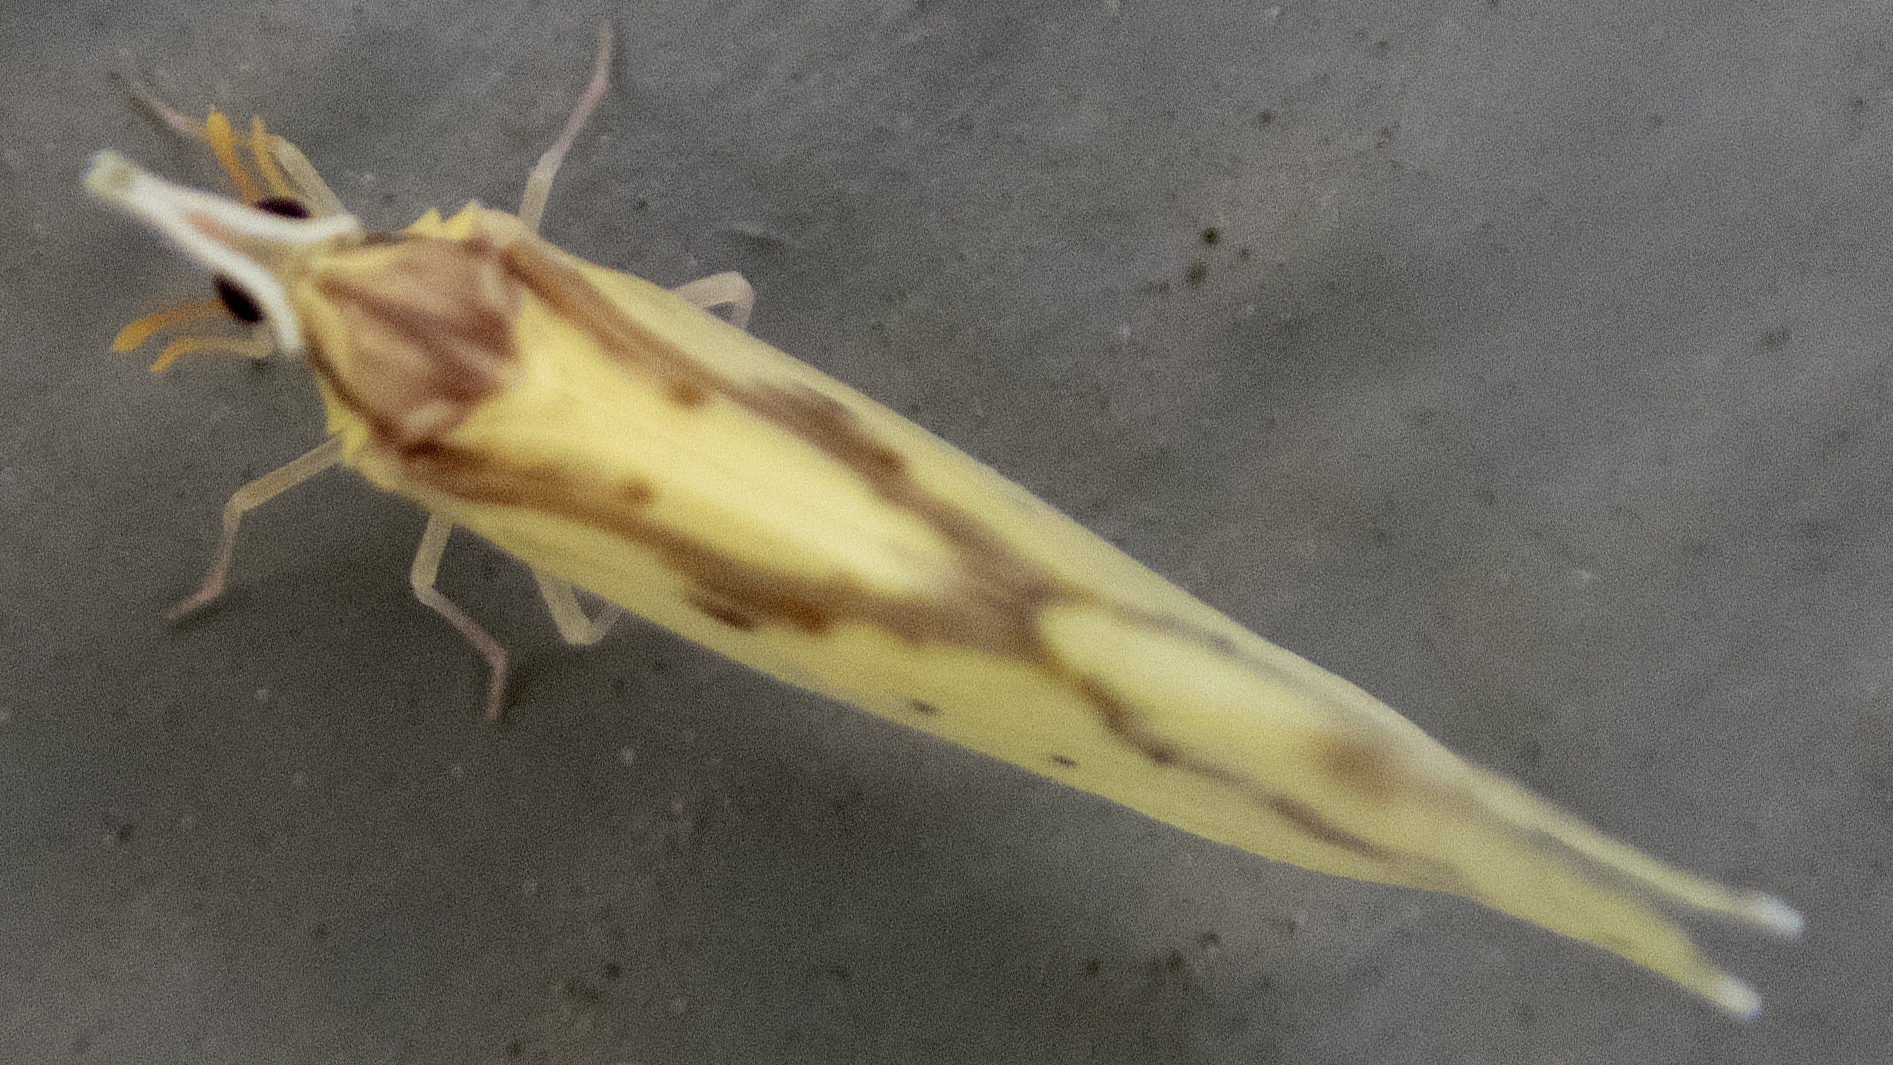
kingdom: Animalia
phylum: Arthropoda
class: Insecta
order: Hemiptera
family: Derbidae
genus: Otiocerus
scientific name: Otiocerus wolfii
